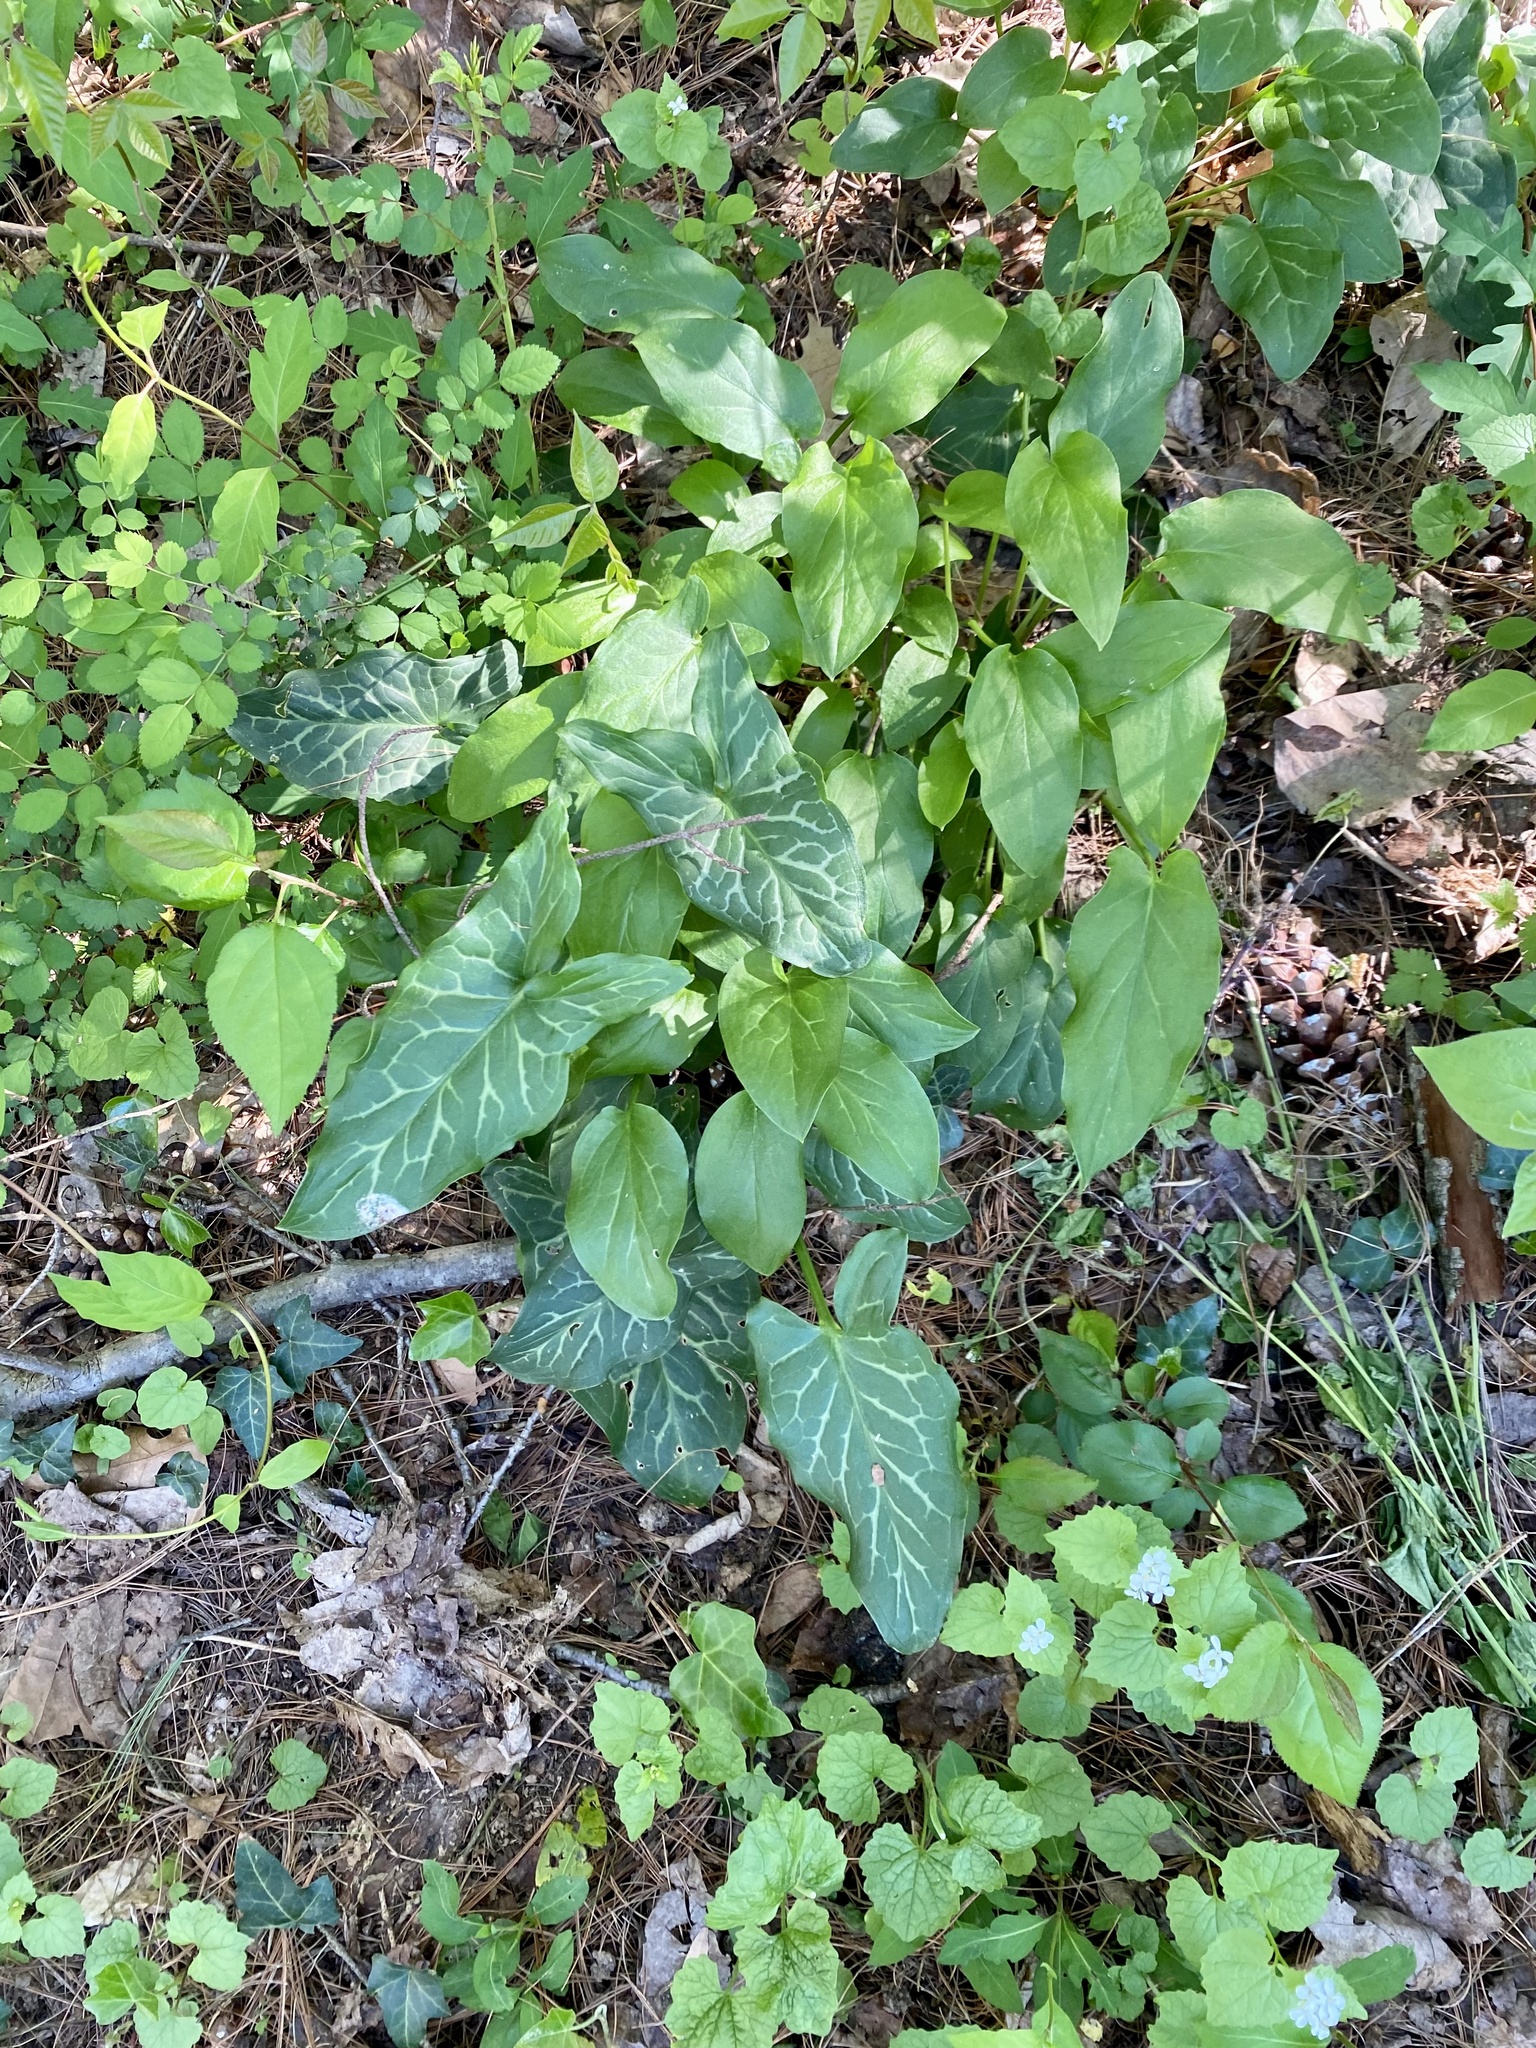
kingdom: Plantae
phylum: Tracheophyta
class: Liliopsida
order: Alismatales
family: Araceae
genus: Arum
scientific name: Arum italicum
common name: Italian lords-and-ladies
